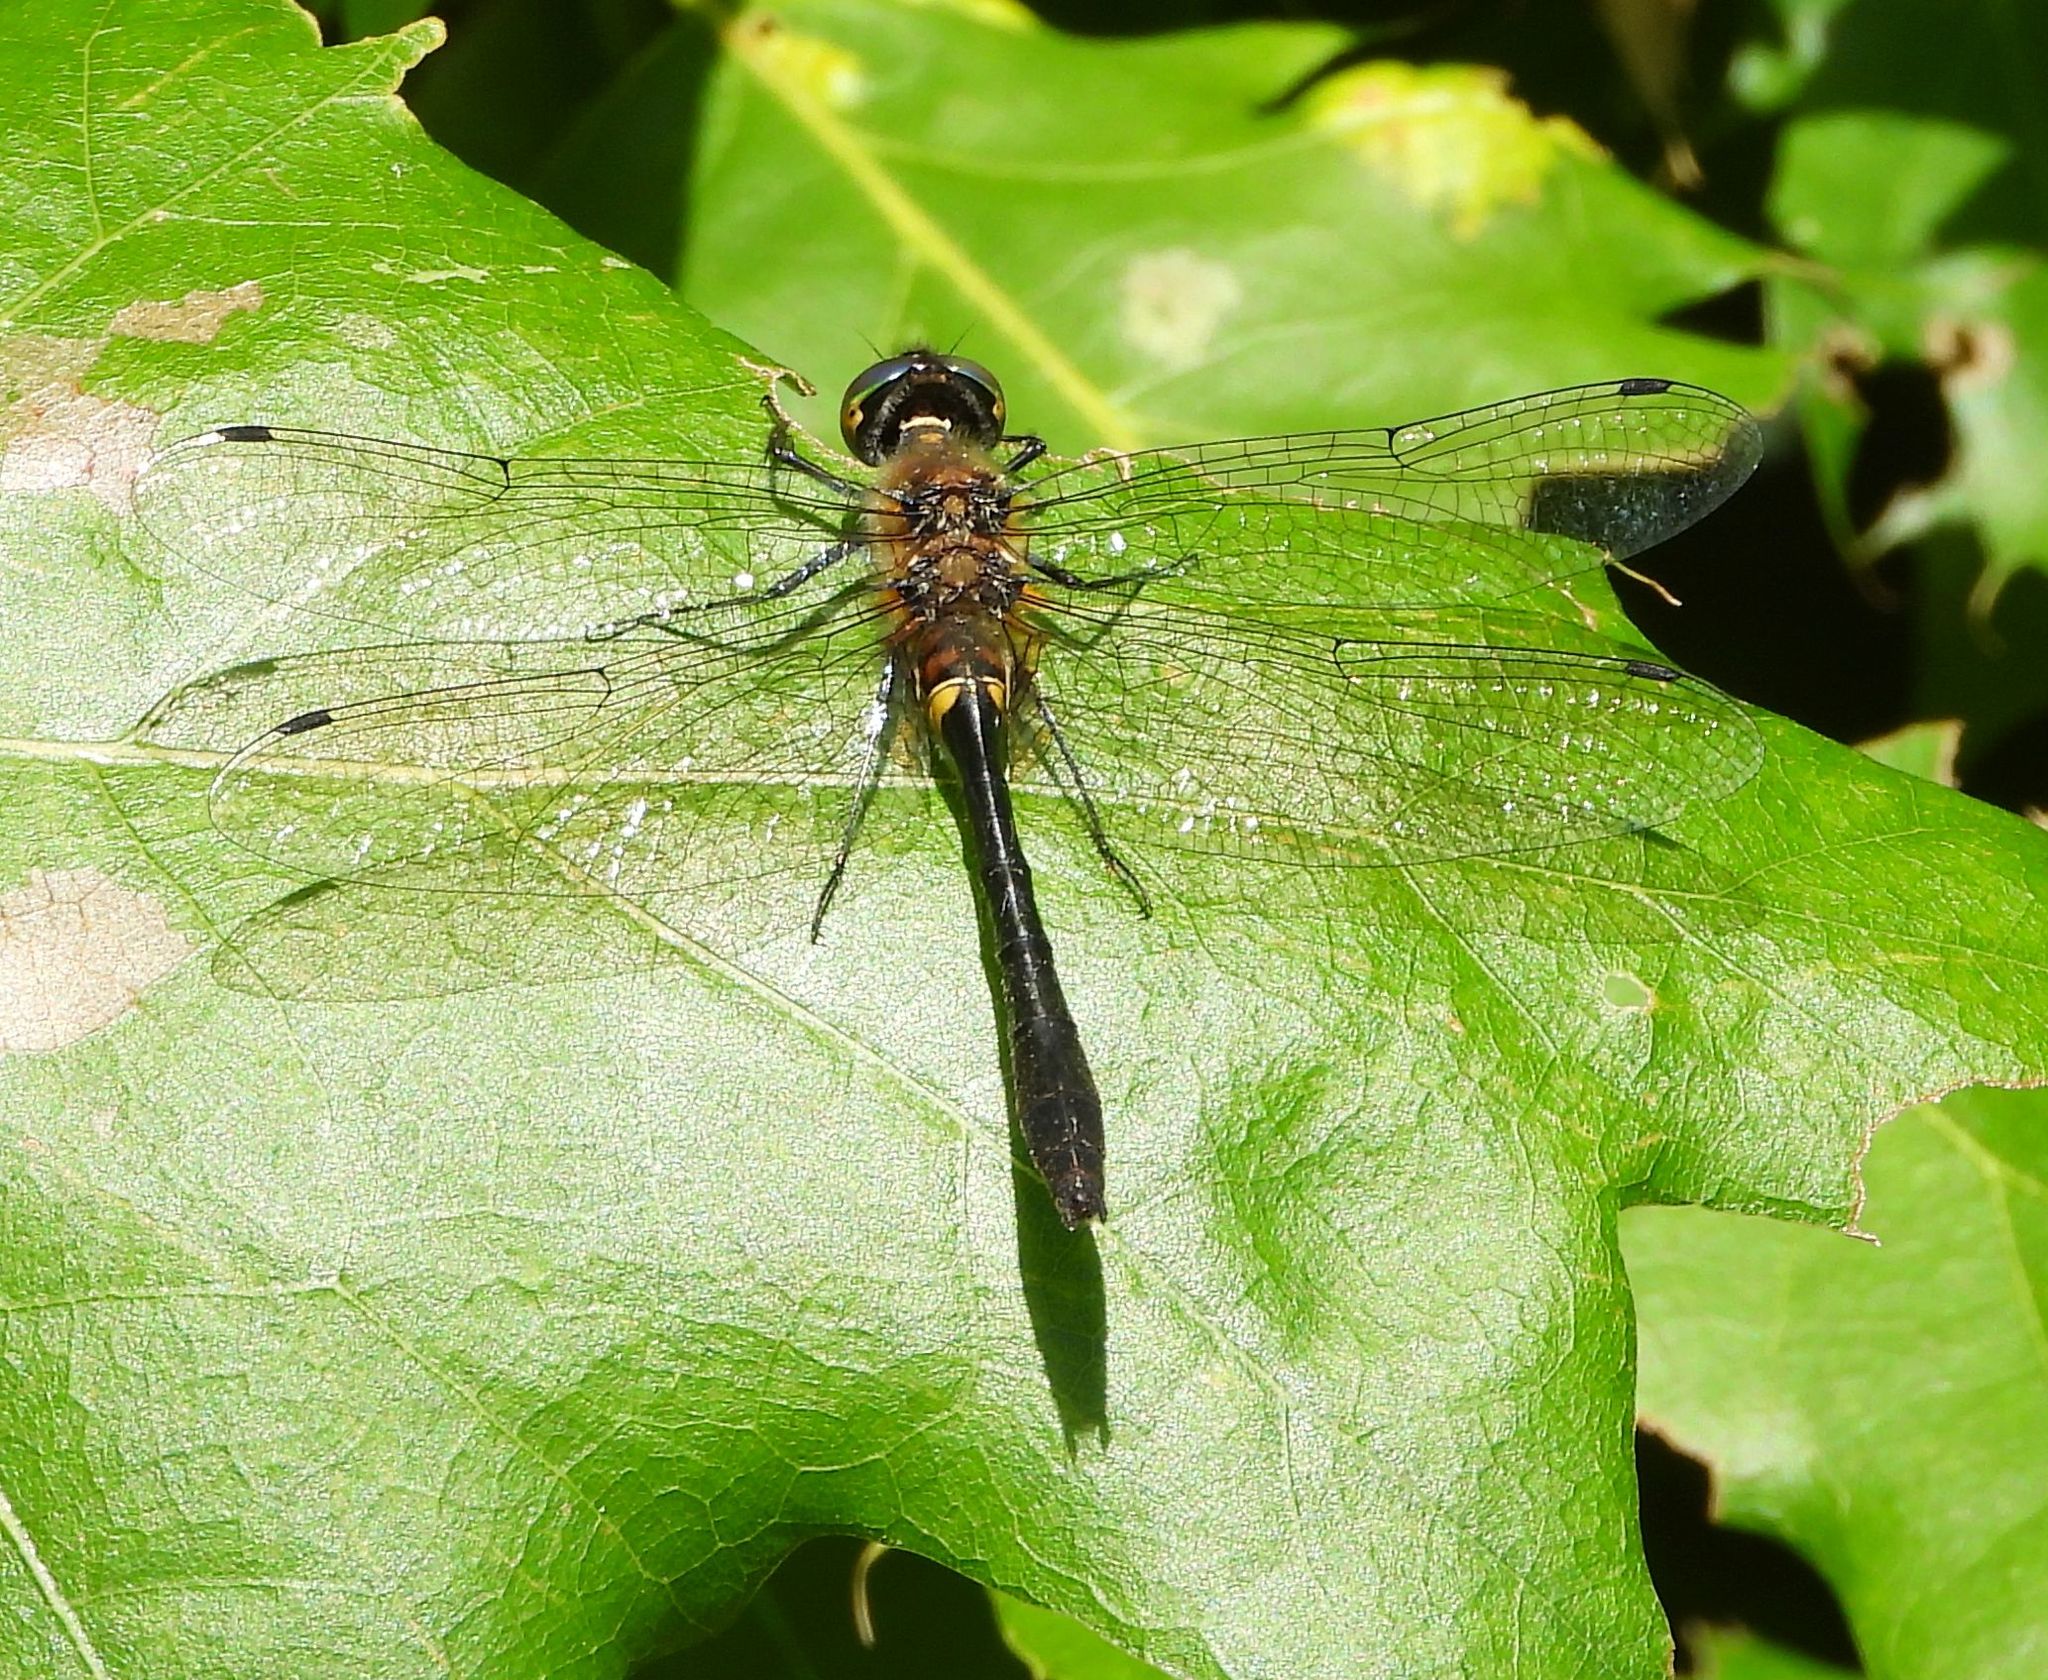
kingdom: Animalia
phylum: Arthropoda
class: Insecta
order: Odonata
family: Corduliidae
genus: Dorocordulia
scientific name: Dorocordulia libera
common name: Racket-tailed emerald
